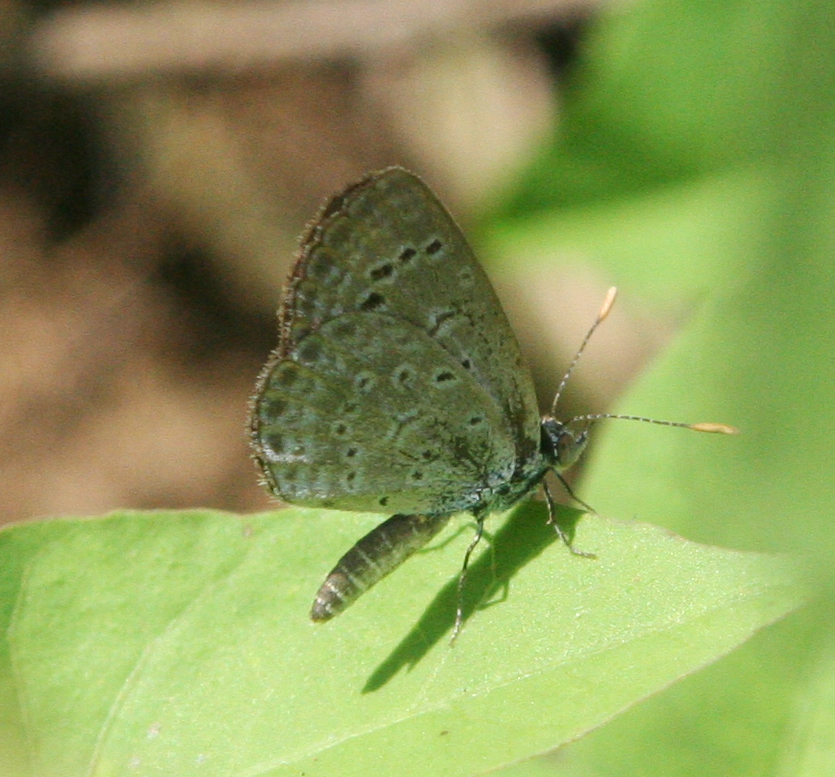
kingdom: Animalia
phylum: Arthropoda
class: Insecta
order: Lepidoptera
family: Lycaenidae
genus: Zizeeria
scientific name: Zizeeria karsandra
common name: Dark grass blue
